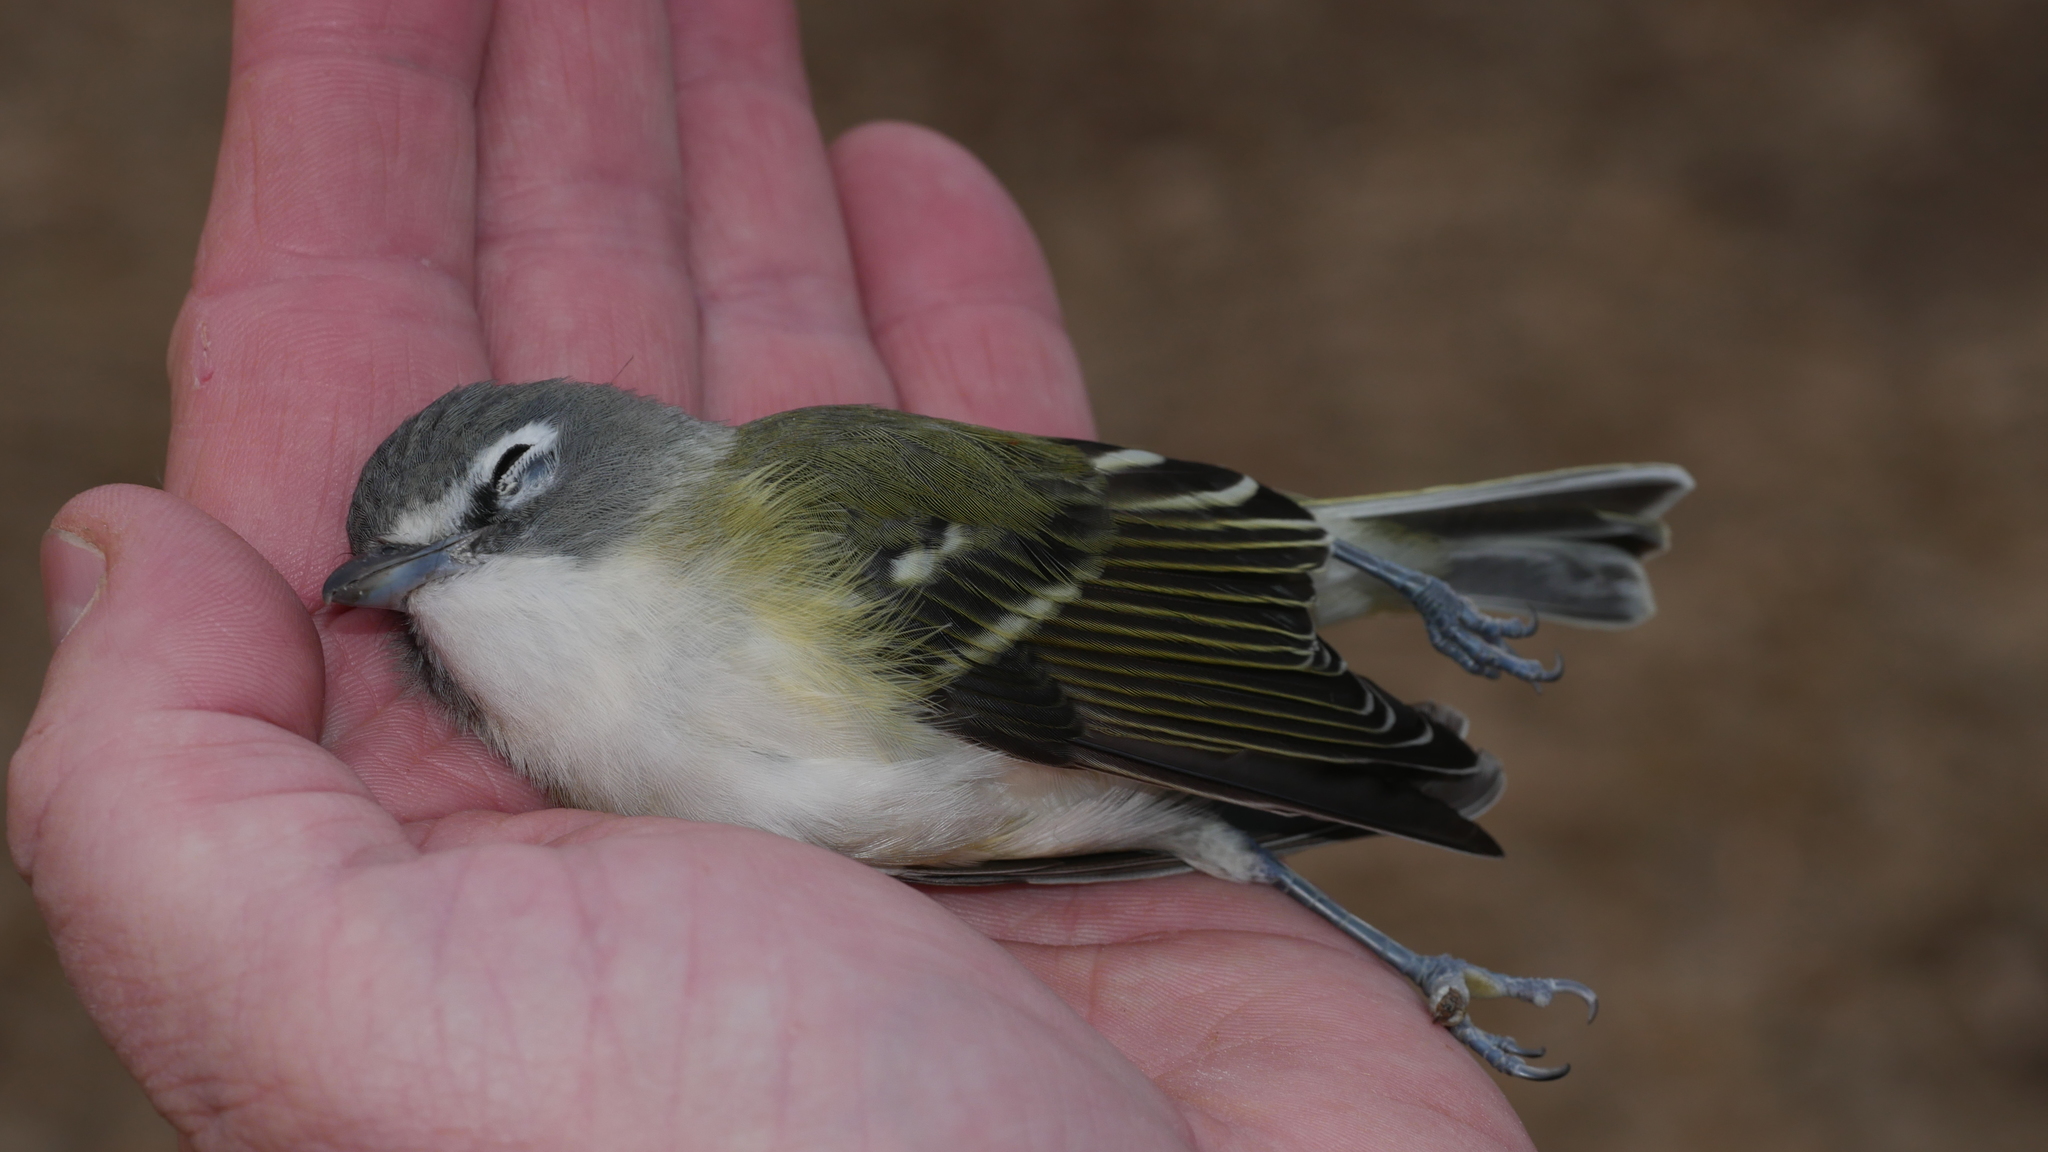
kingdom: Animalia
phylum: Chordata
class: Aves
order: Passeriformes
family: Vireonidae
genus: Vireo
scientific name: Vireo solitarius
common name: Blue-headed vireo
